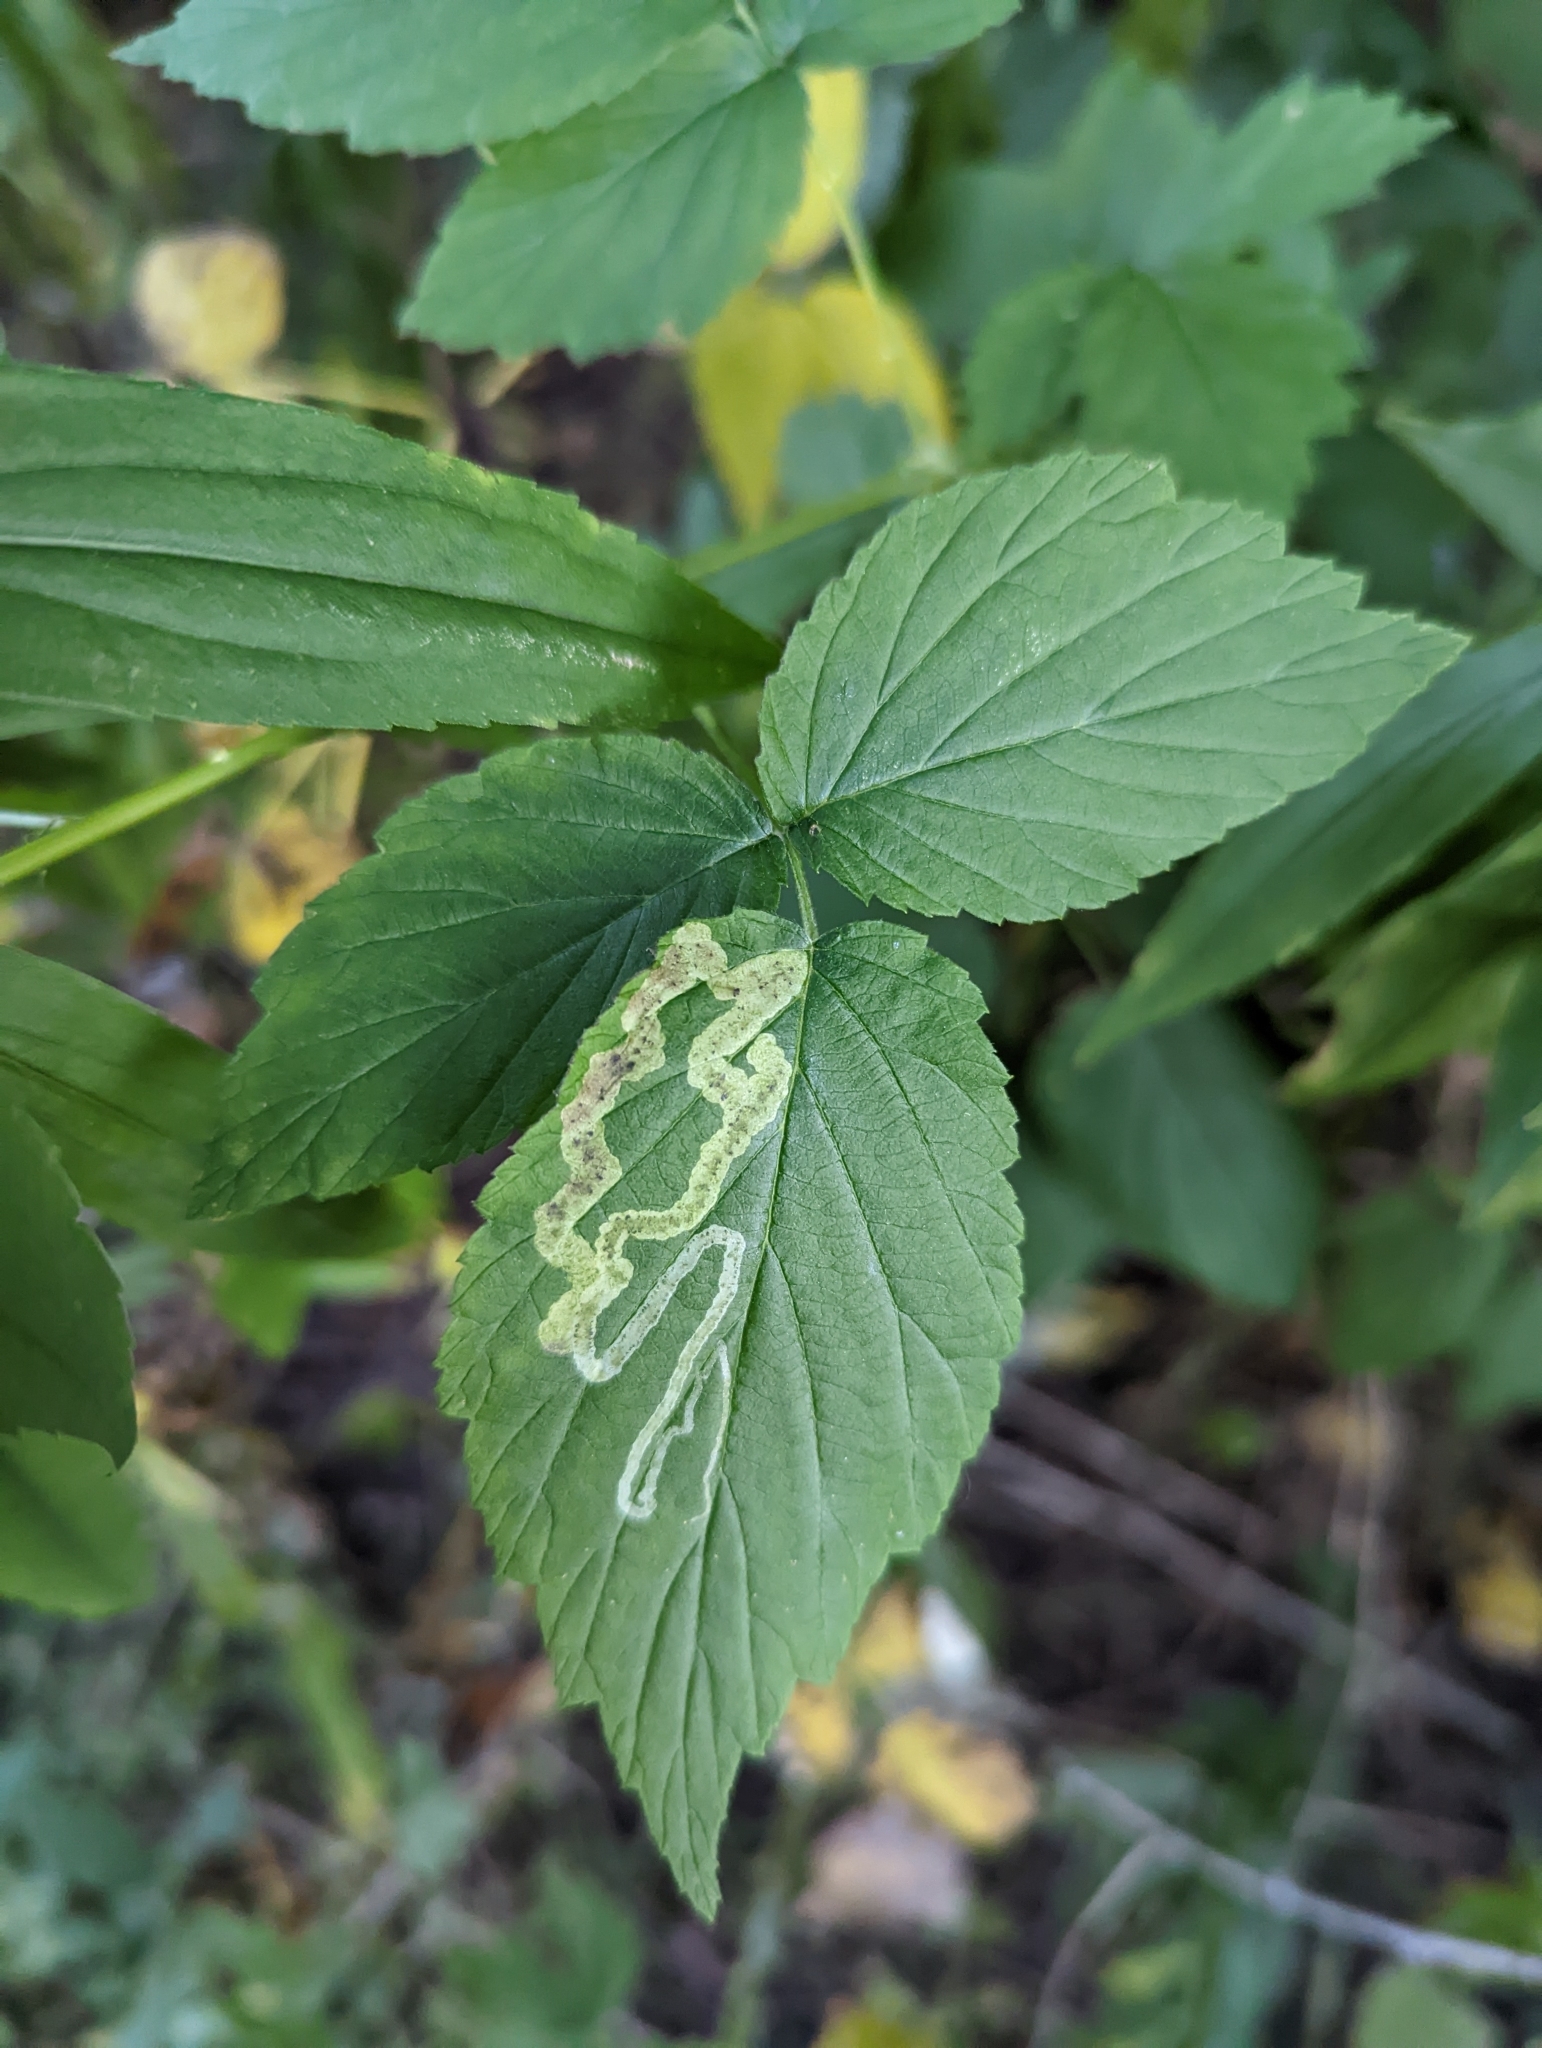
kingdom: Animalia
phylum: Arthropoda
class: Insecta
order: Diptera
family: Agromyzidae
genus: Agromyza
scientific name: Agromyza vockerothi
